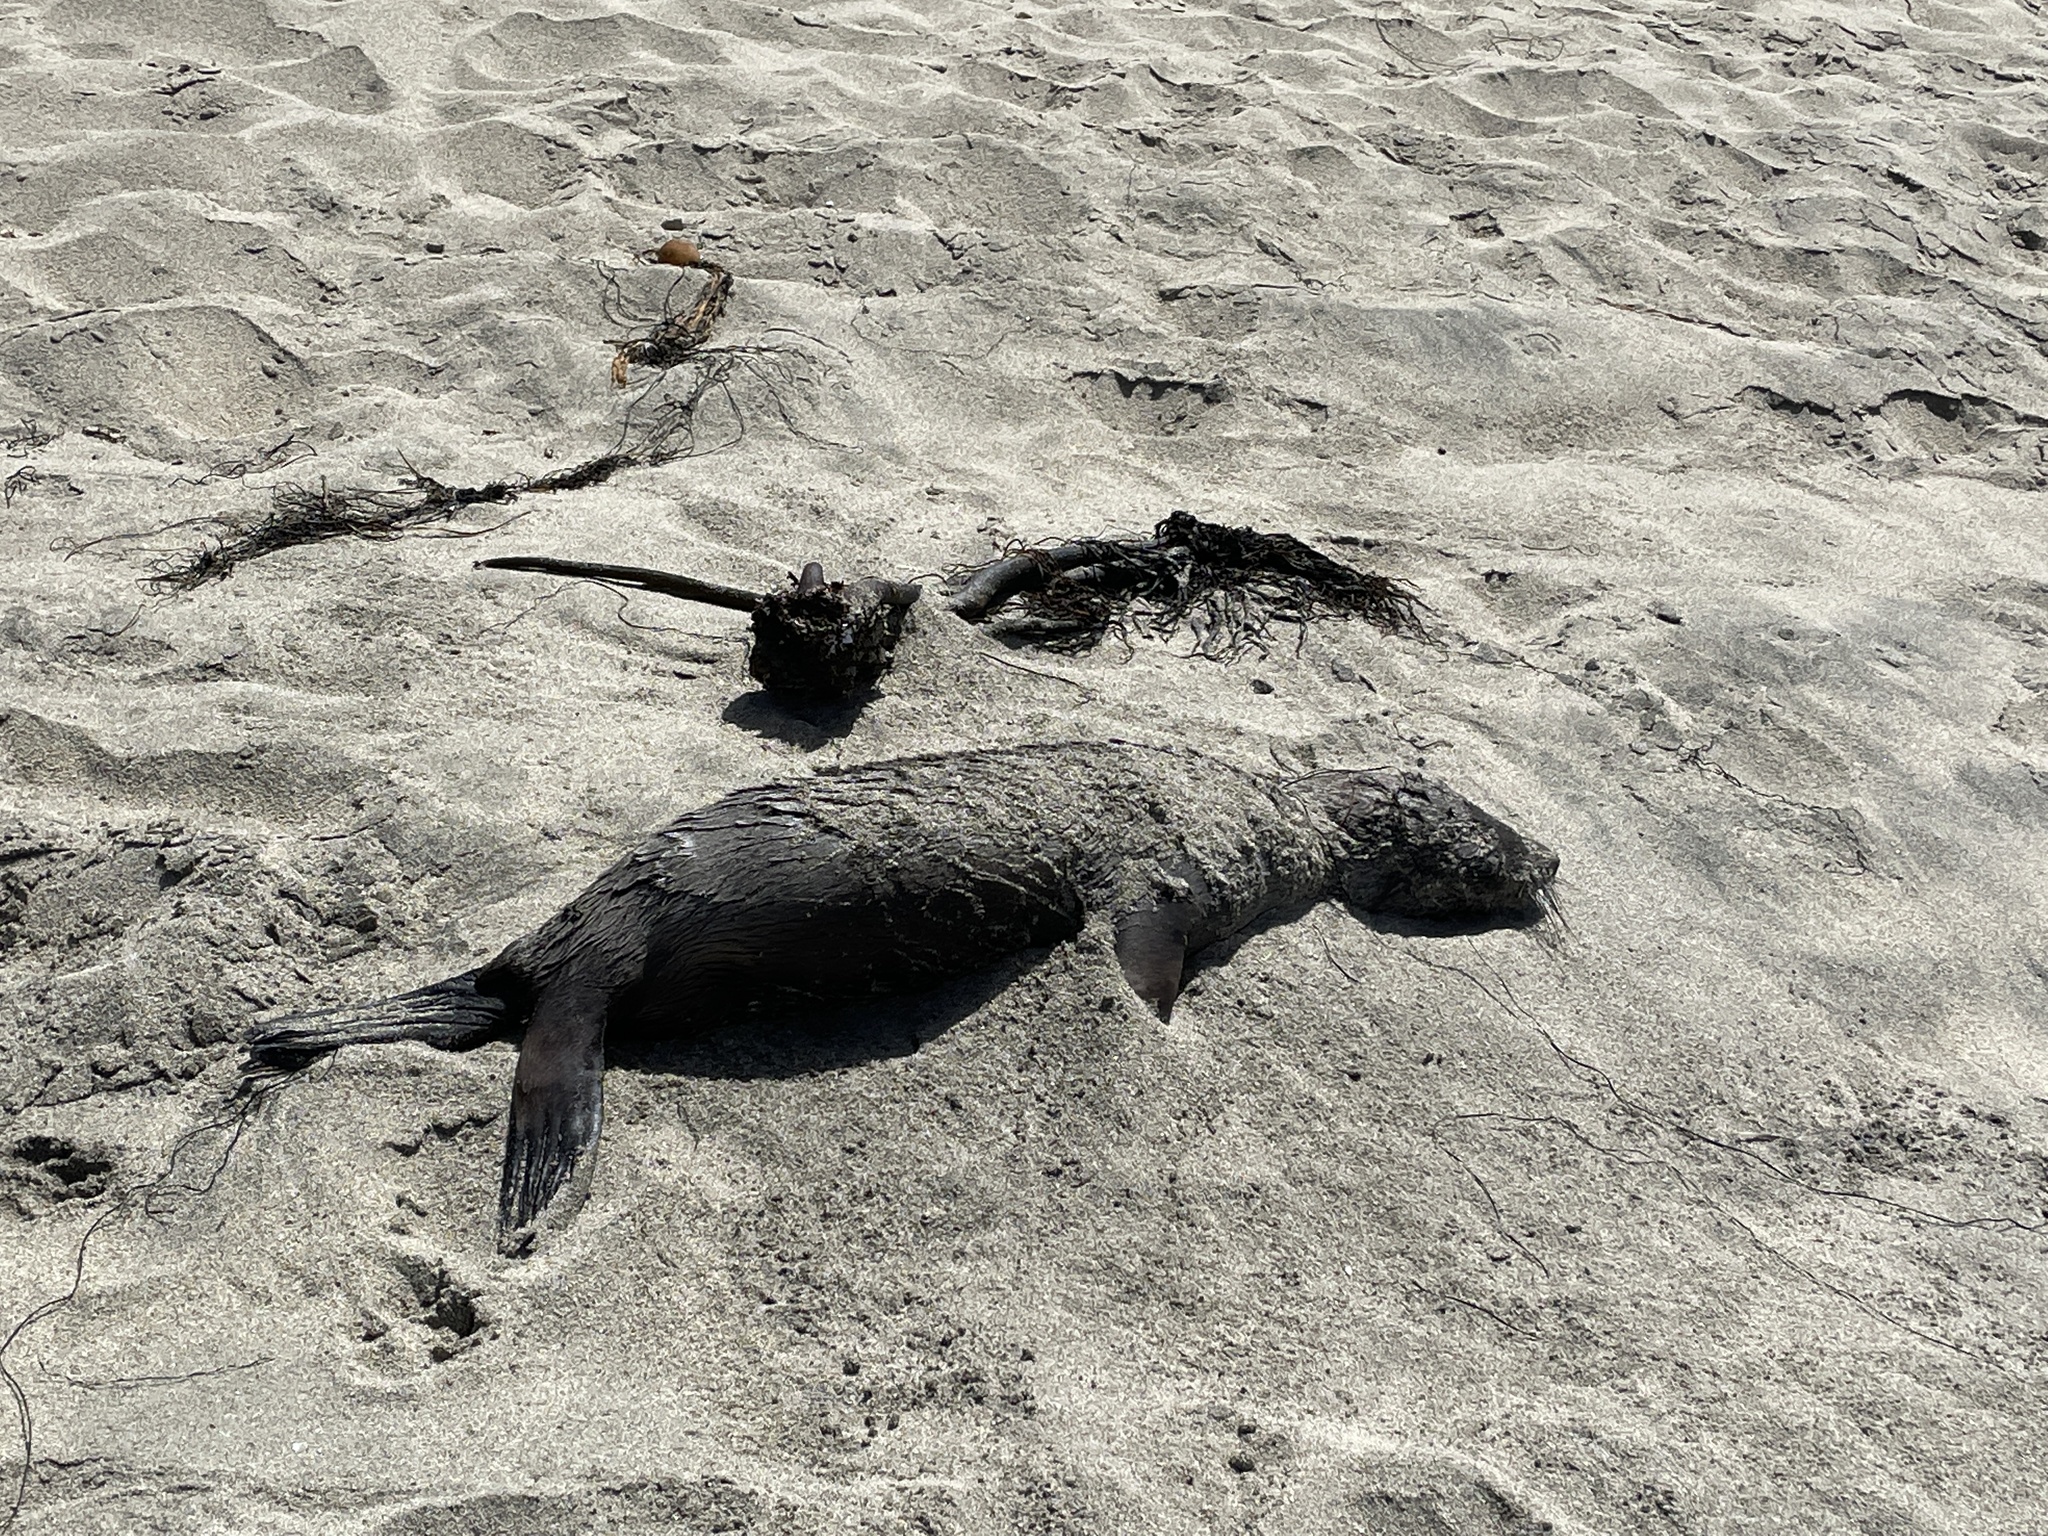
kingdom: Animalia
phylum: Chordata
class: Mammalia
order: Carnivora
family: Otariidae
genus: Arctocephalus
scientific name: Arctocephalus philippii
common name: Juan fernández fur seal
